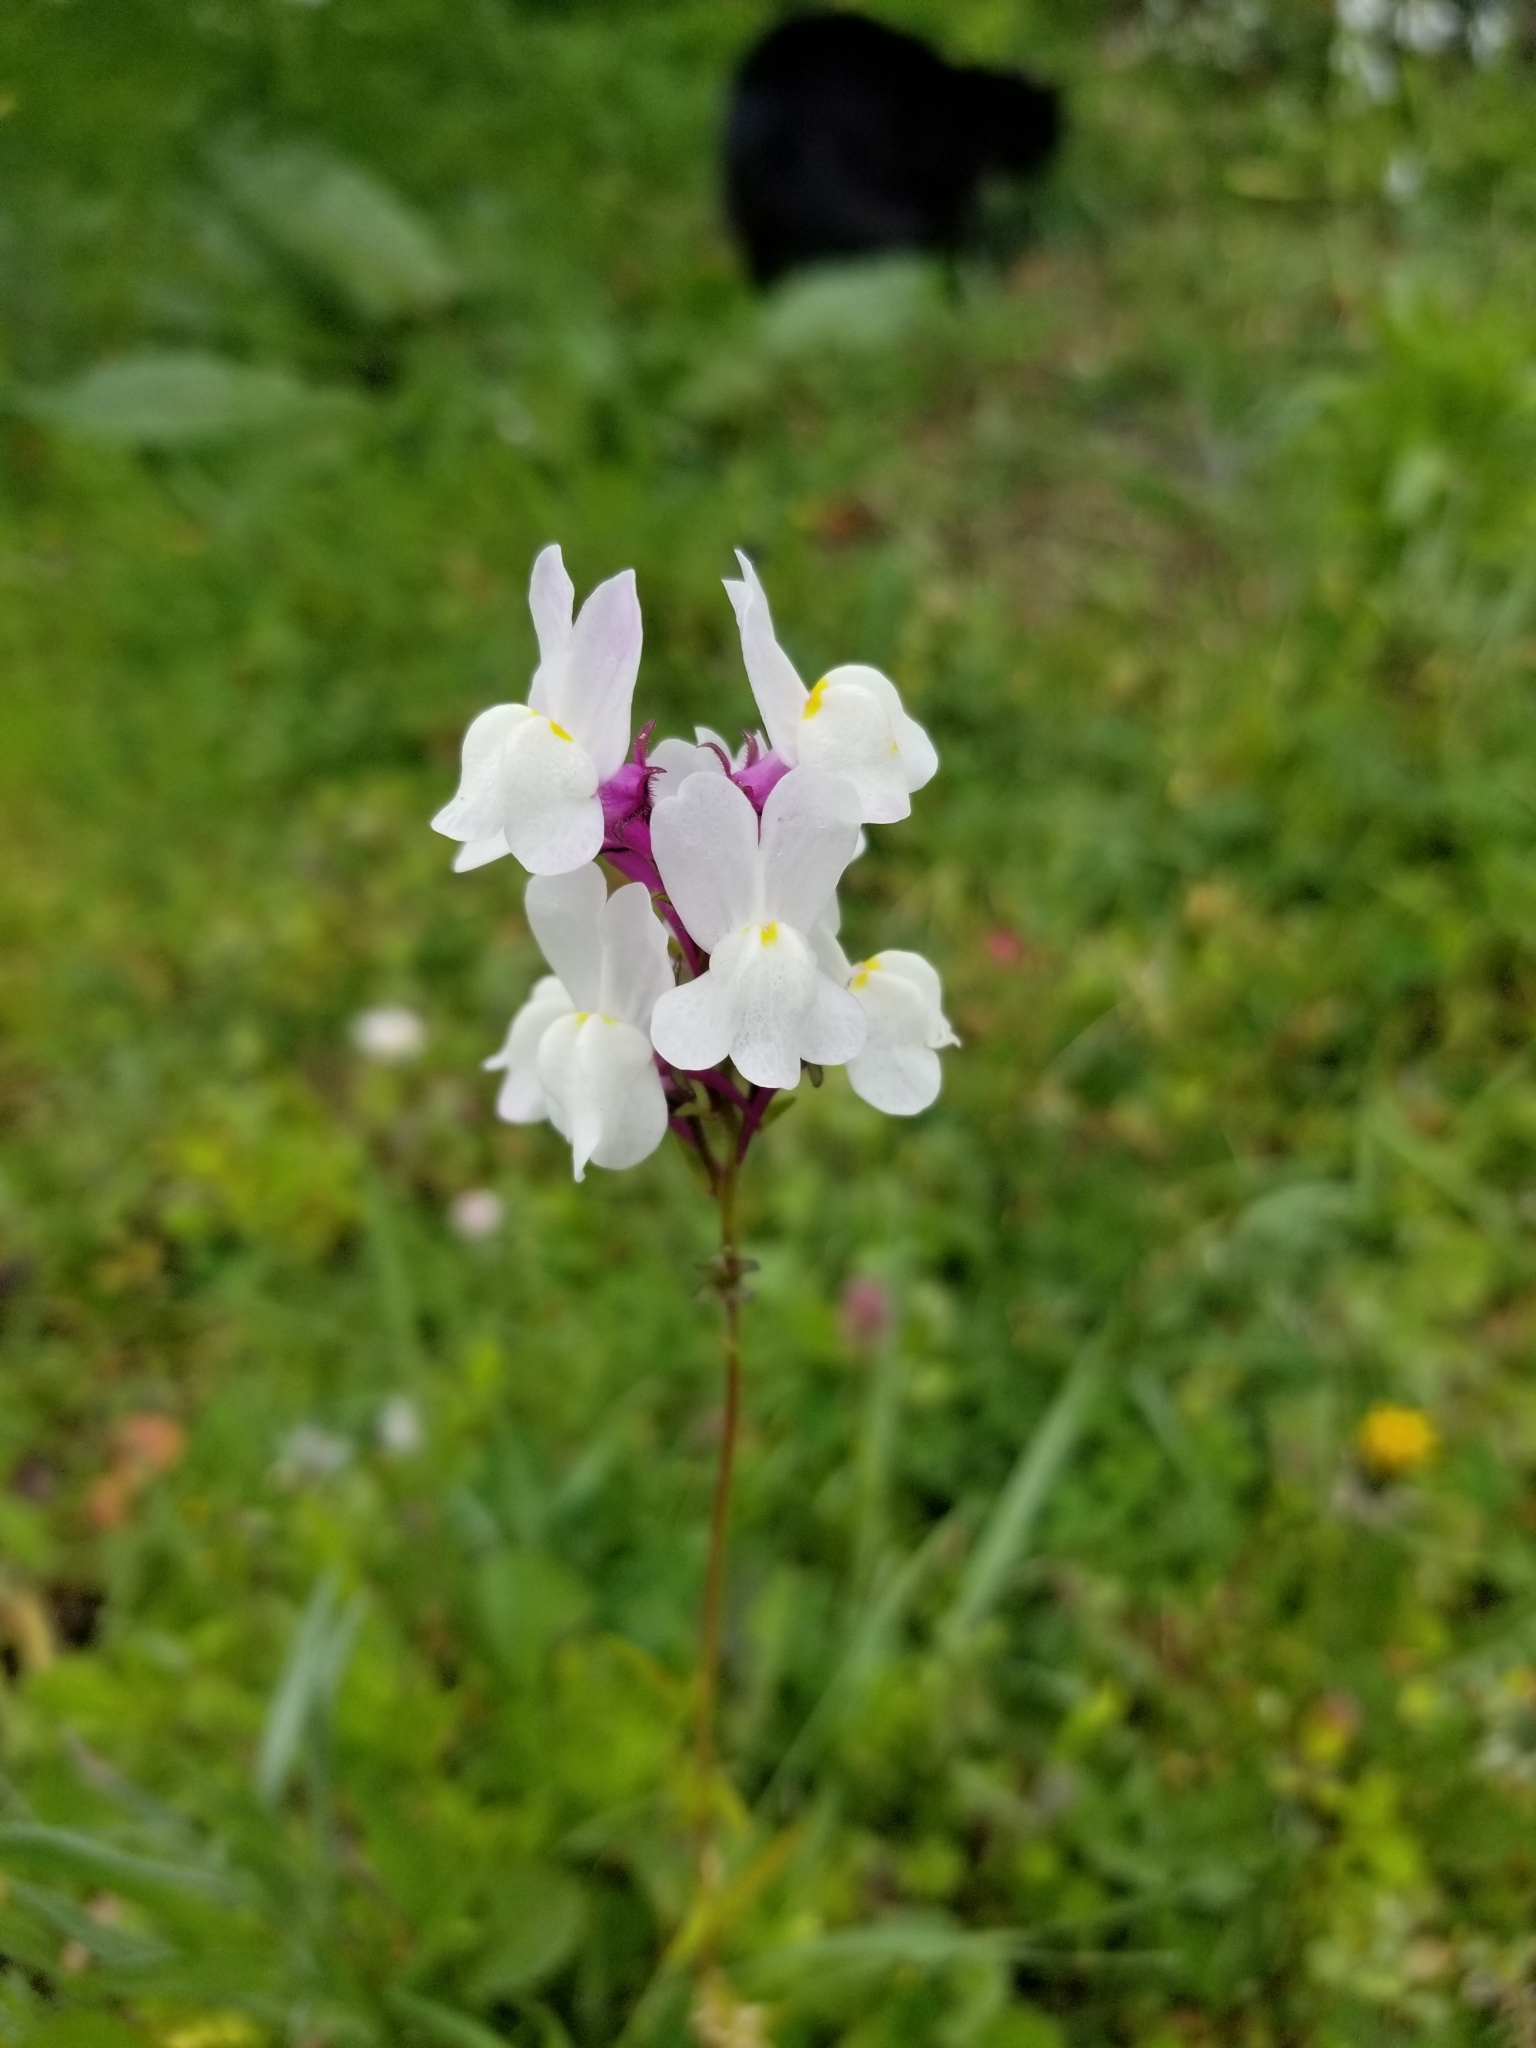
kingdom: Plantae
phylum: Tracheophyta
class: Magnoliopsida
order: Lamiales
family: Plantaginaceae
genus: Linaria
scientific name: Linaria maroccana
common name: Moroccan toadflax
